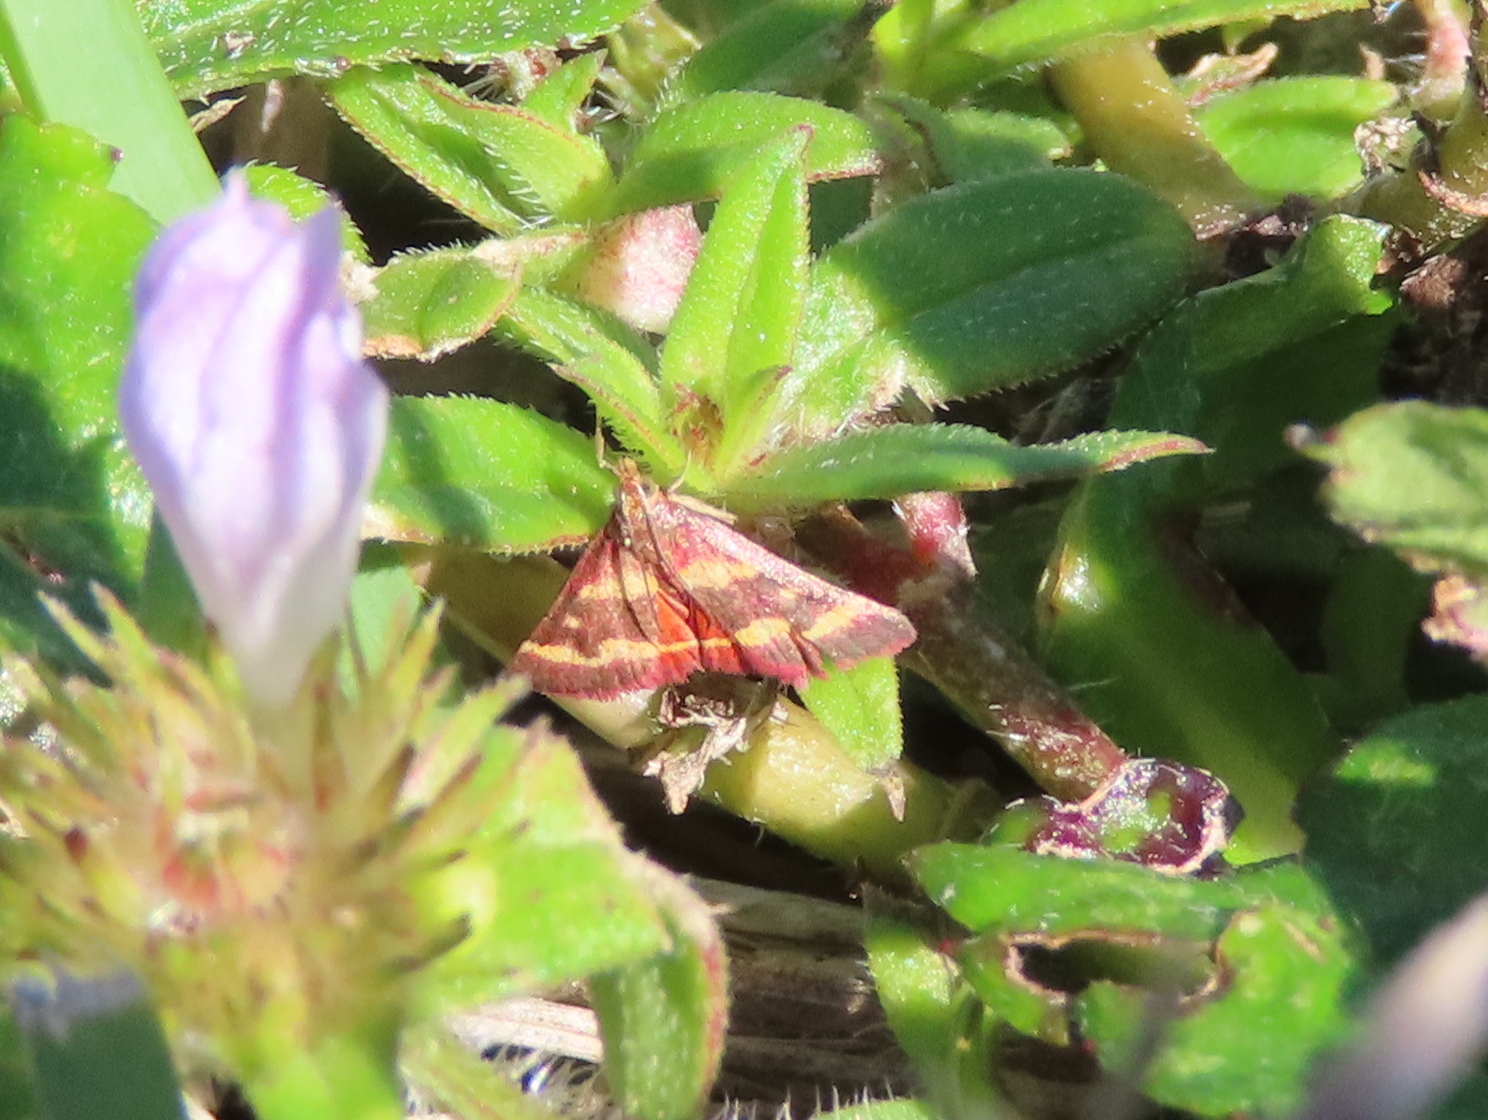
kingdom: Animalia
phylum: Arthropoda
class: Insecta
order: Lepidoptera
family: Crambidae
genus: Pyrausta
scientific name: Pyrausta tyralis
